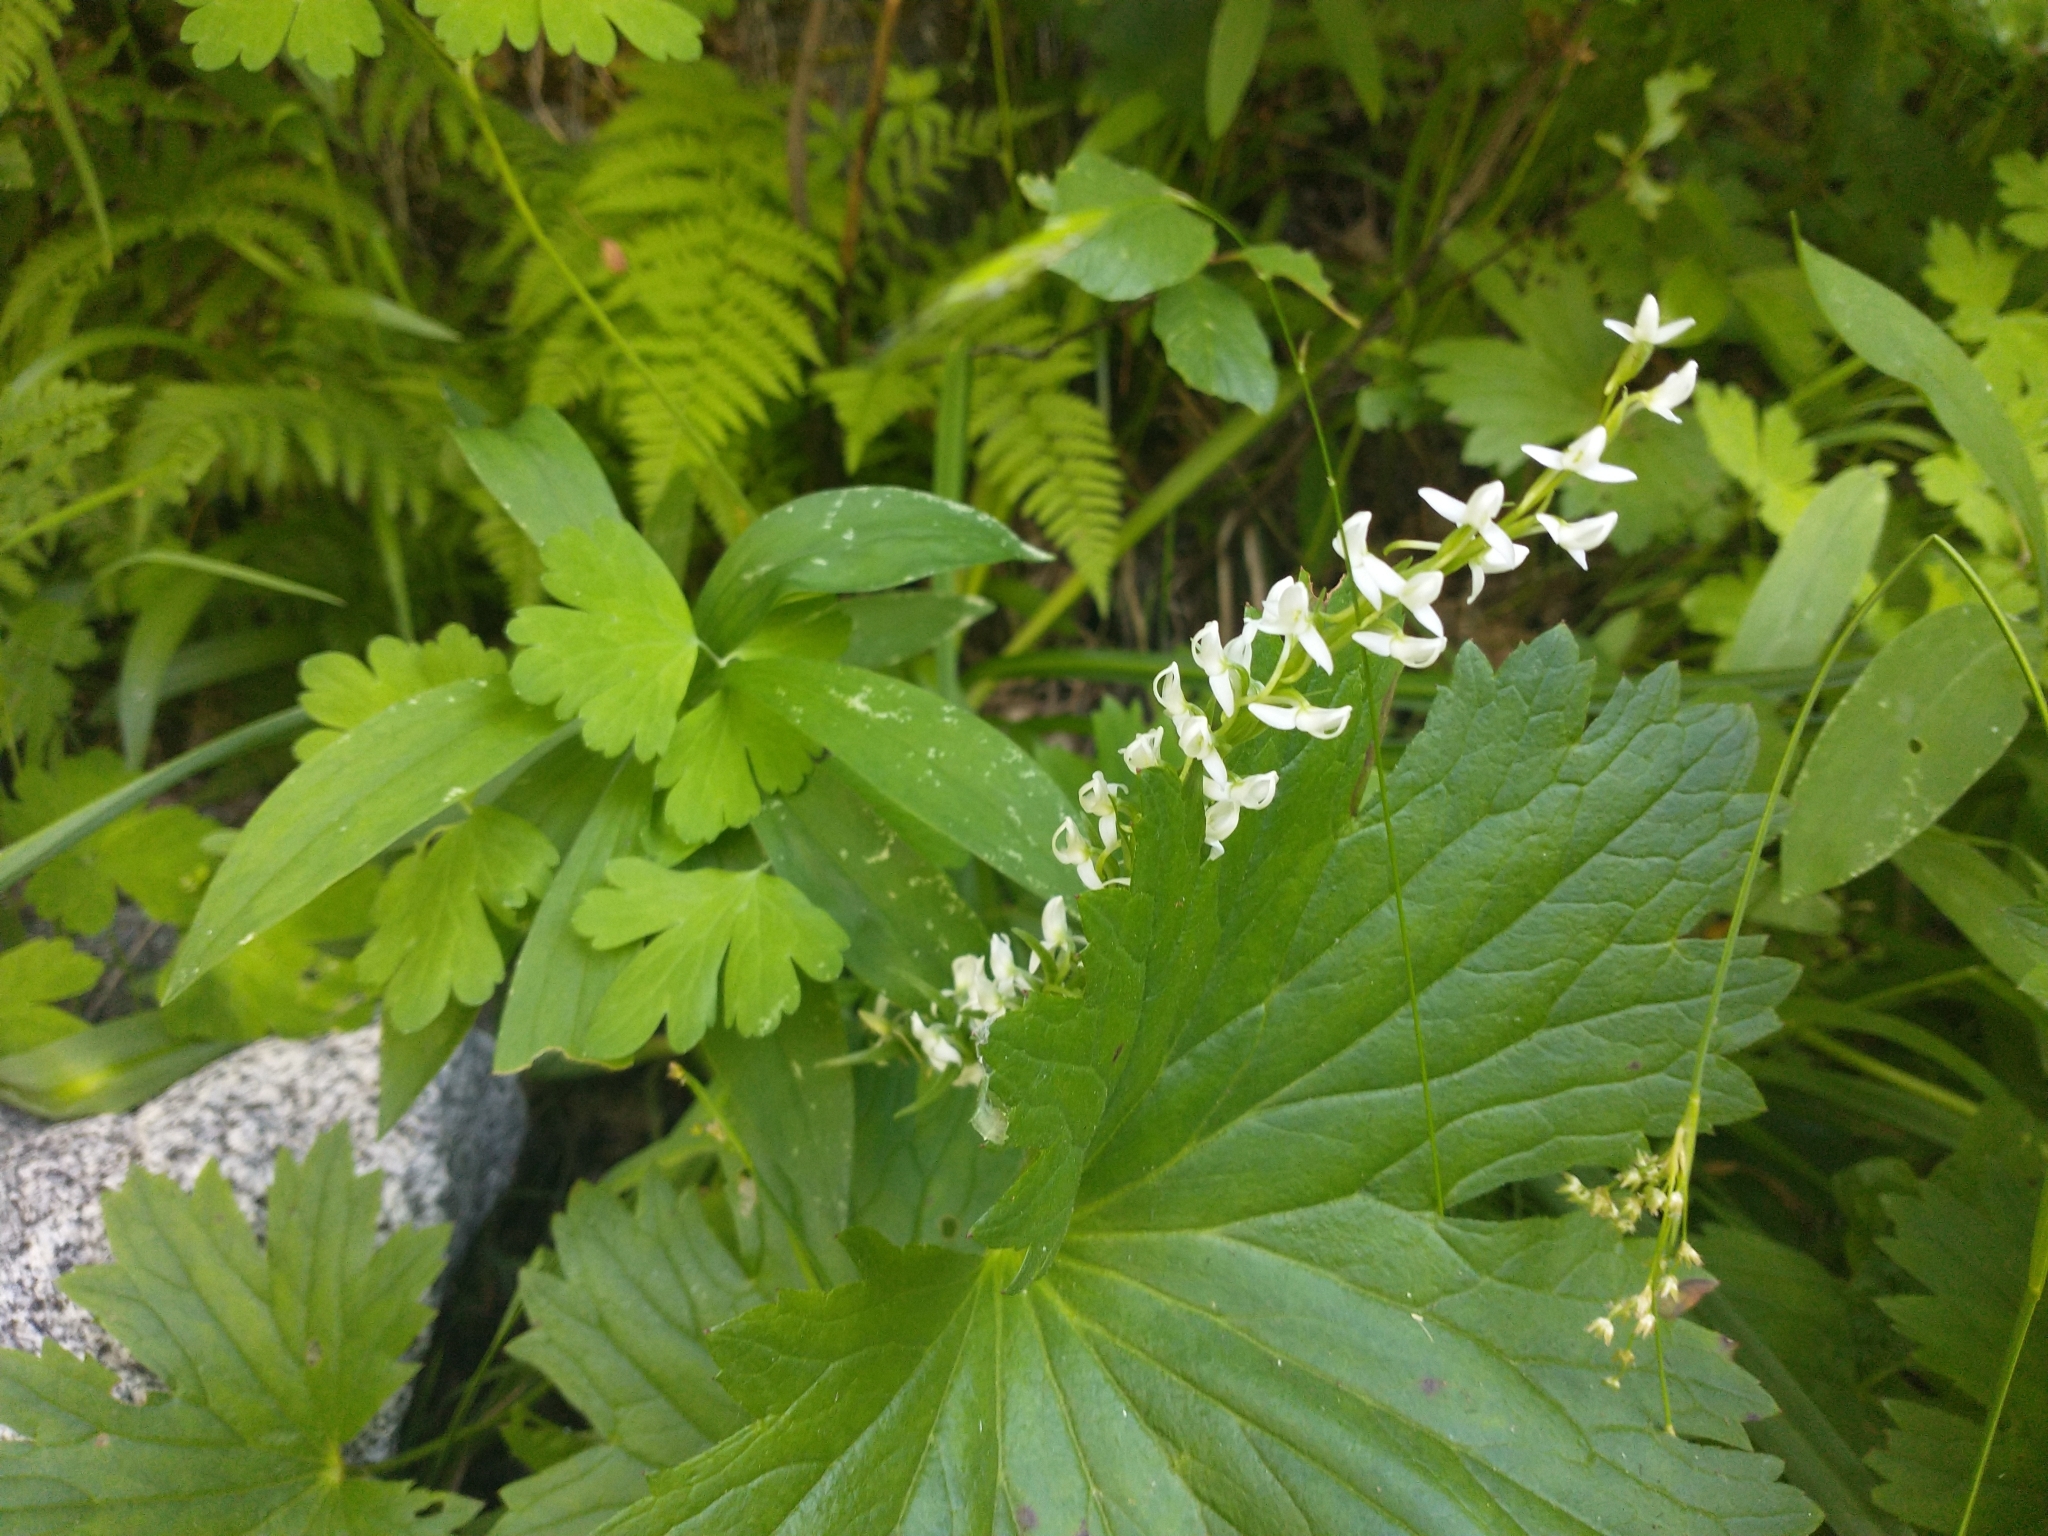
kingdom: Plantae
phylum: Tracheophyta
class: Liliopsida
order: Asparagales
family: Orchidaceae
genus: Platanthera
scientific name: Platanthera dilatata
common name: Bog candles
